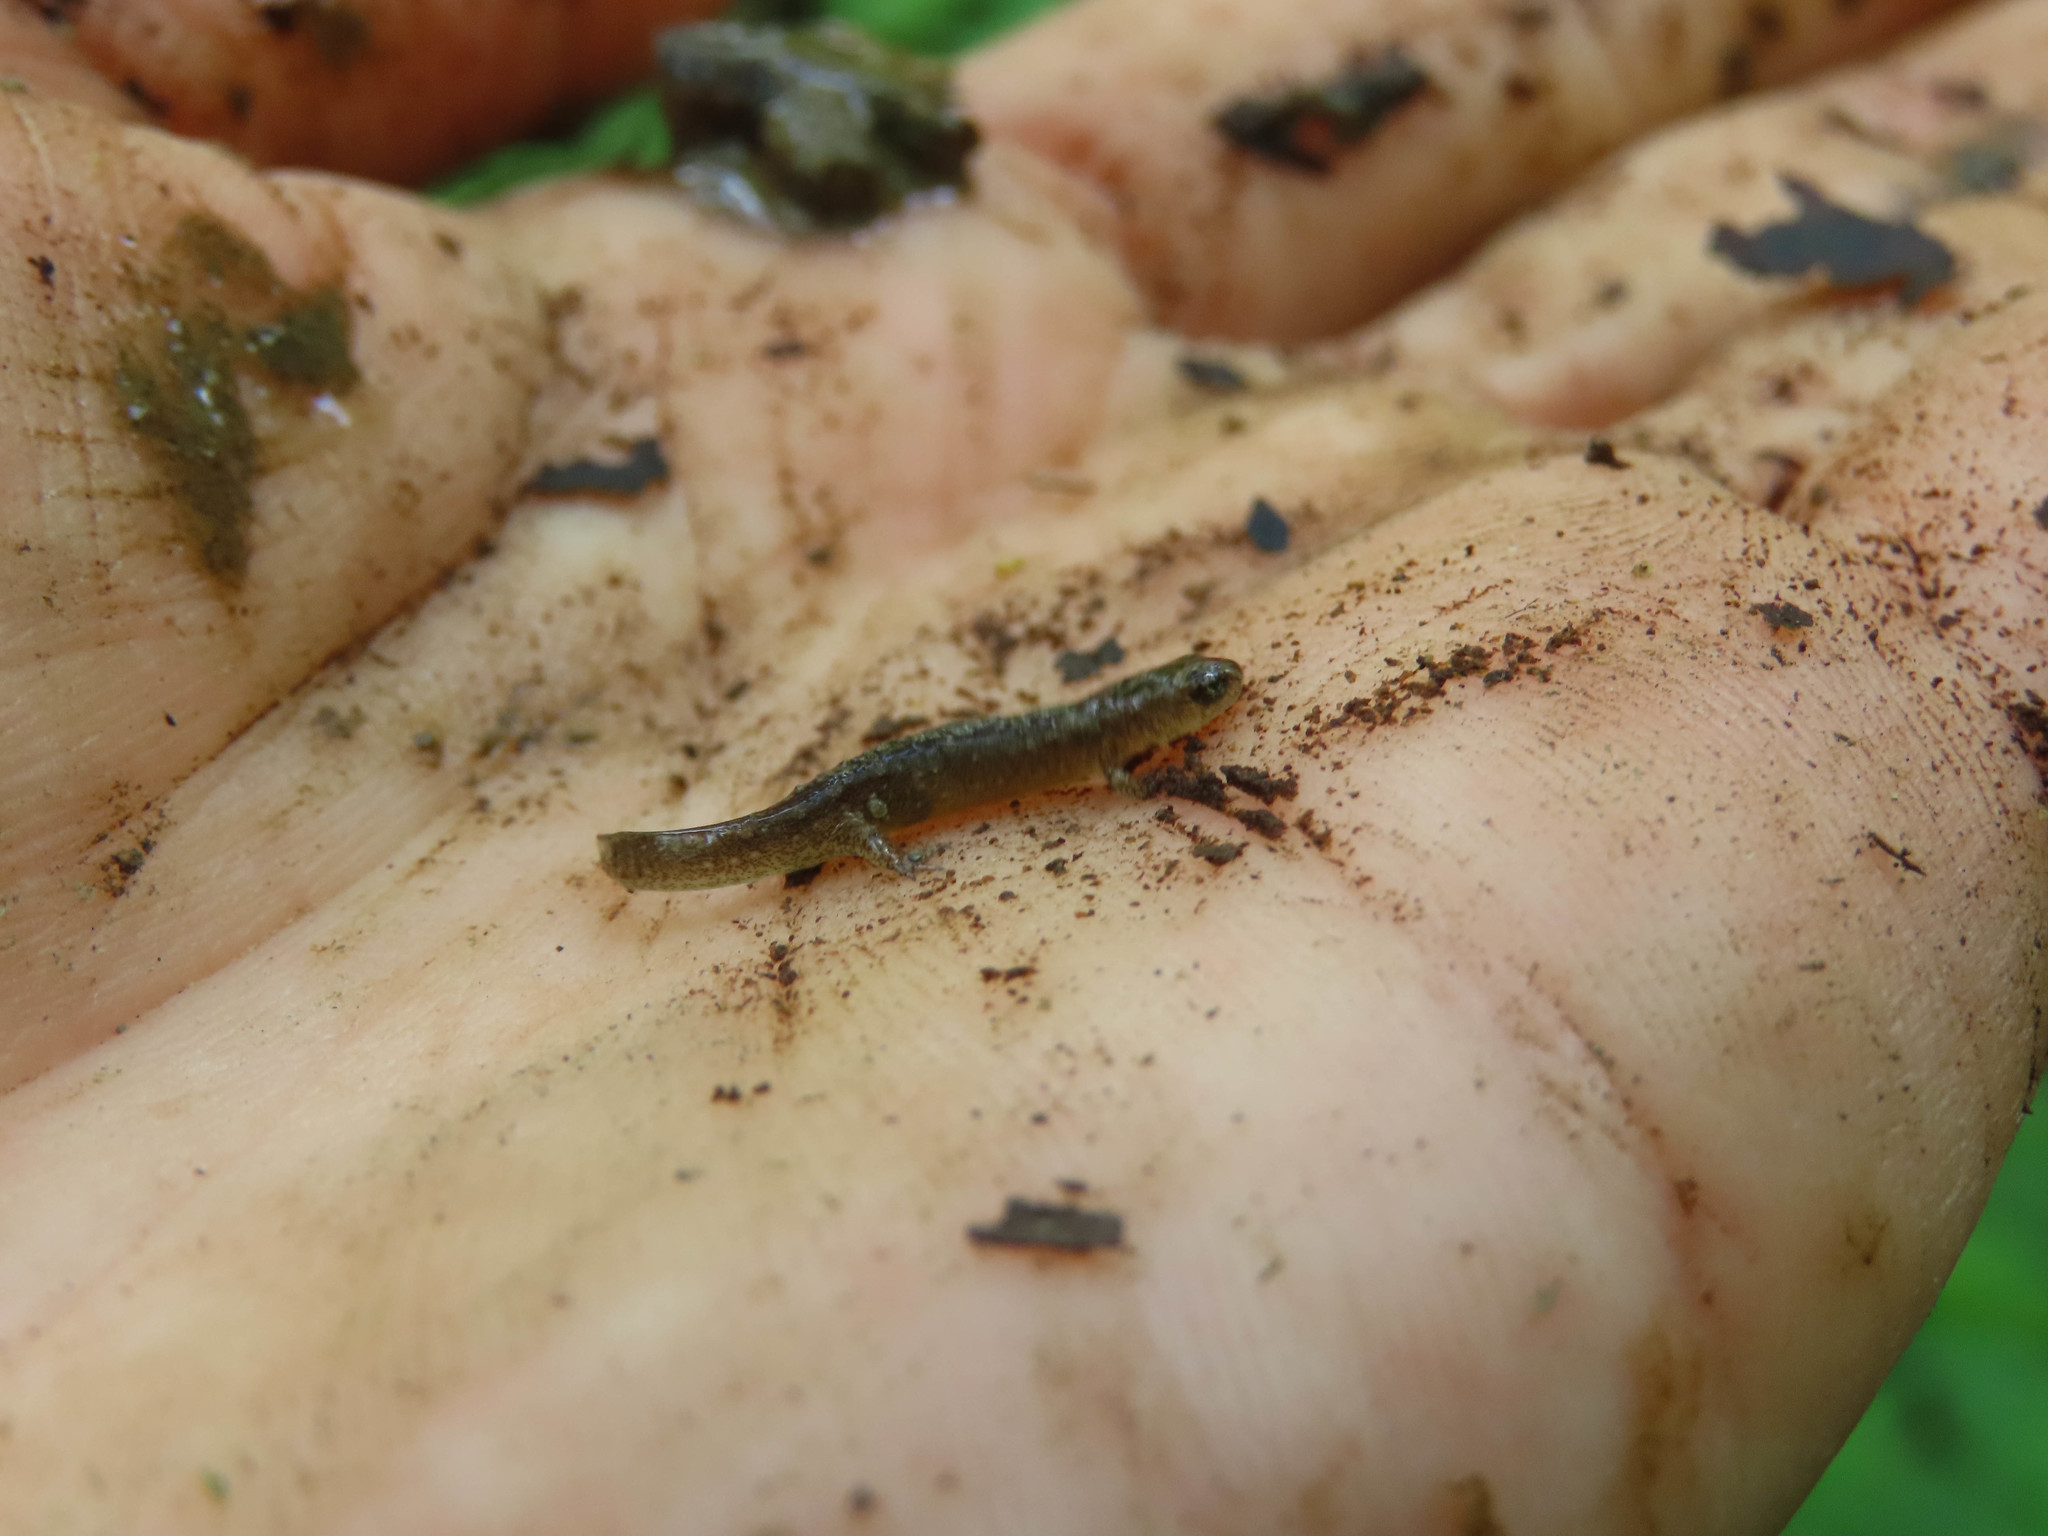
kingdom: Animalia
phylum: Chordata
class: Amphibia
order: Caudata
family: Plethodontidae
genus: Desmognathus
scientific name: Desmognathus fuscus
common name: Northern dusky salamander
